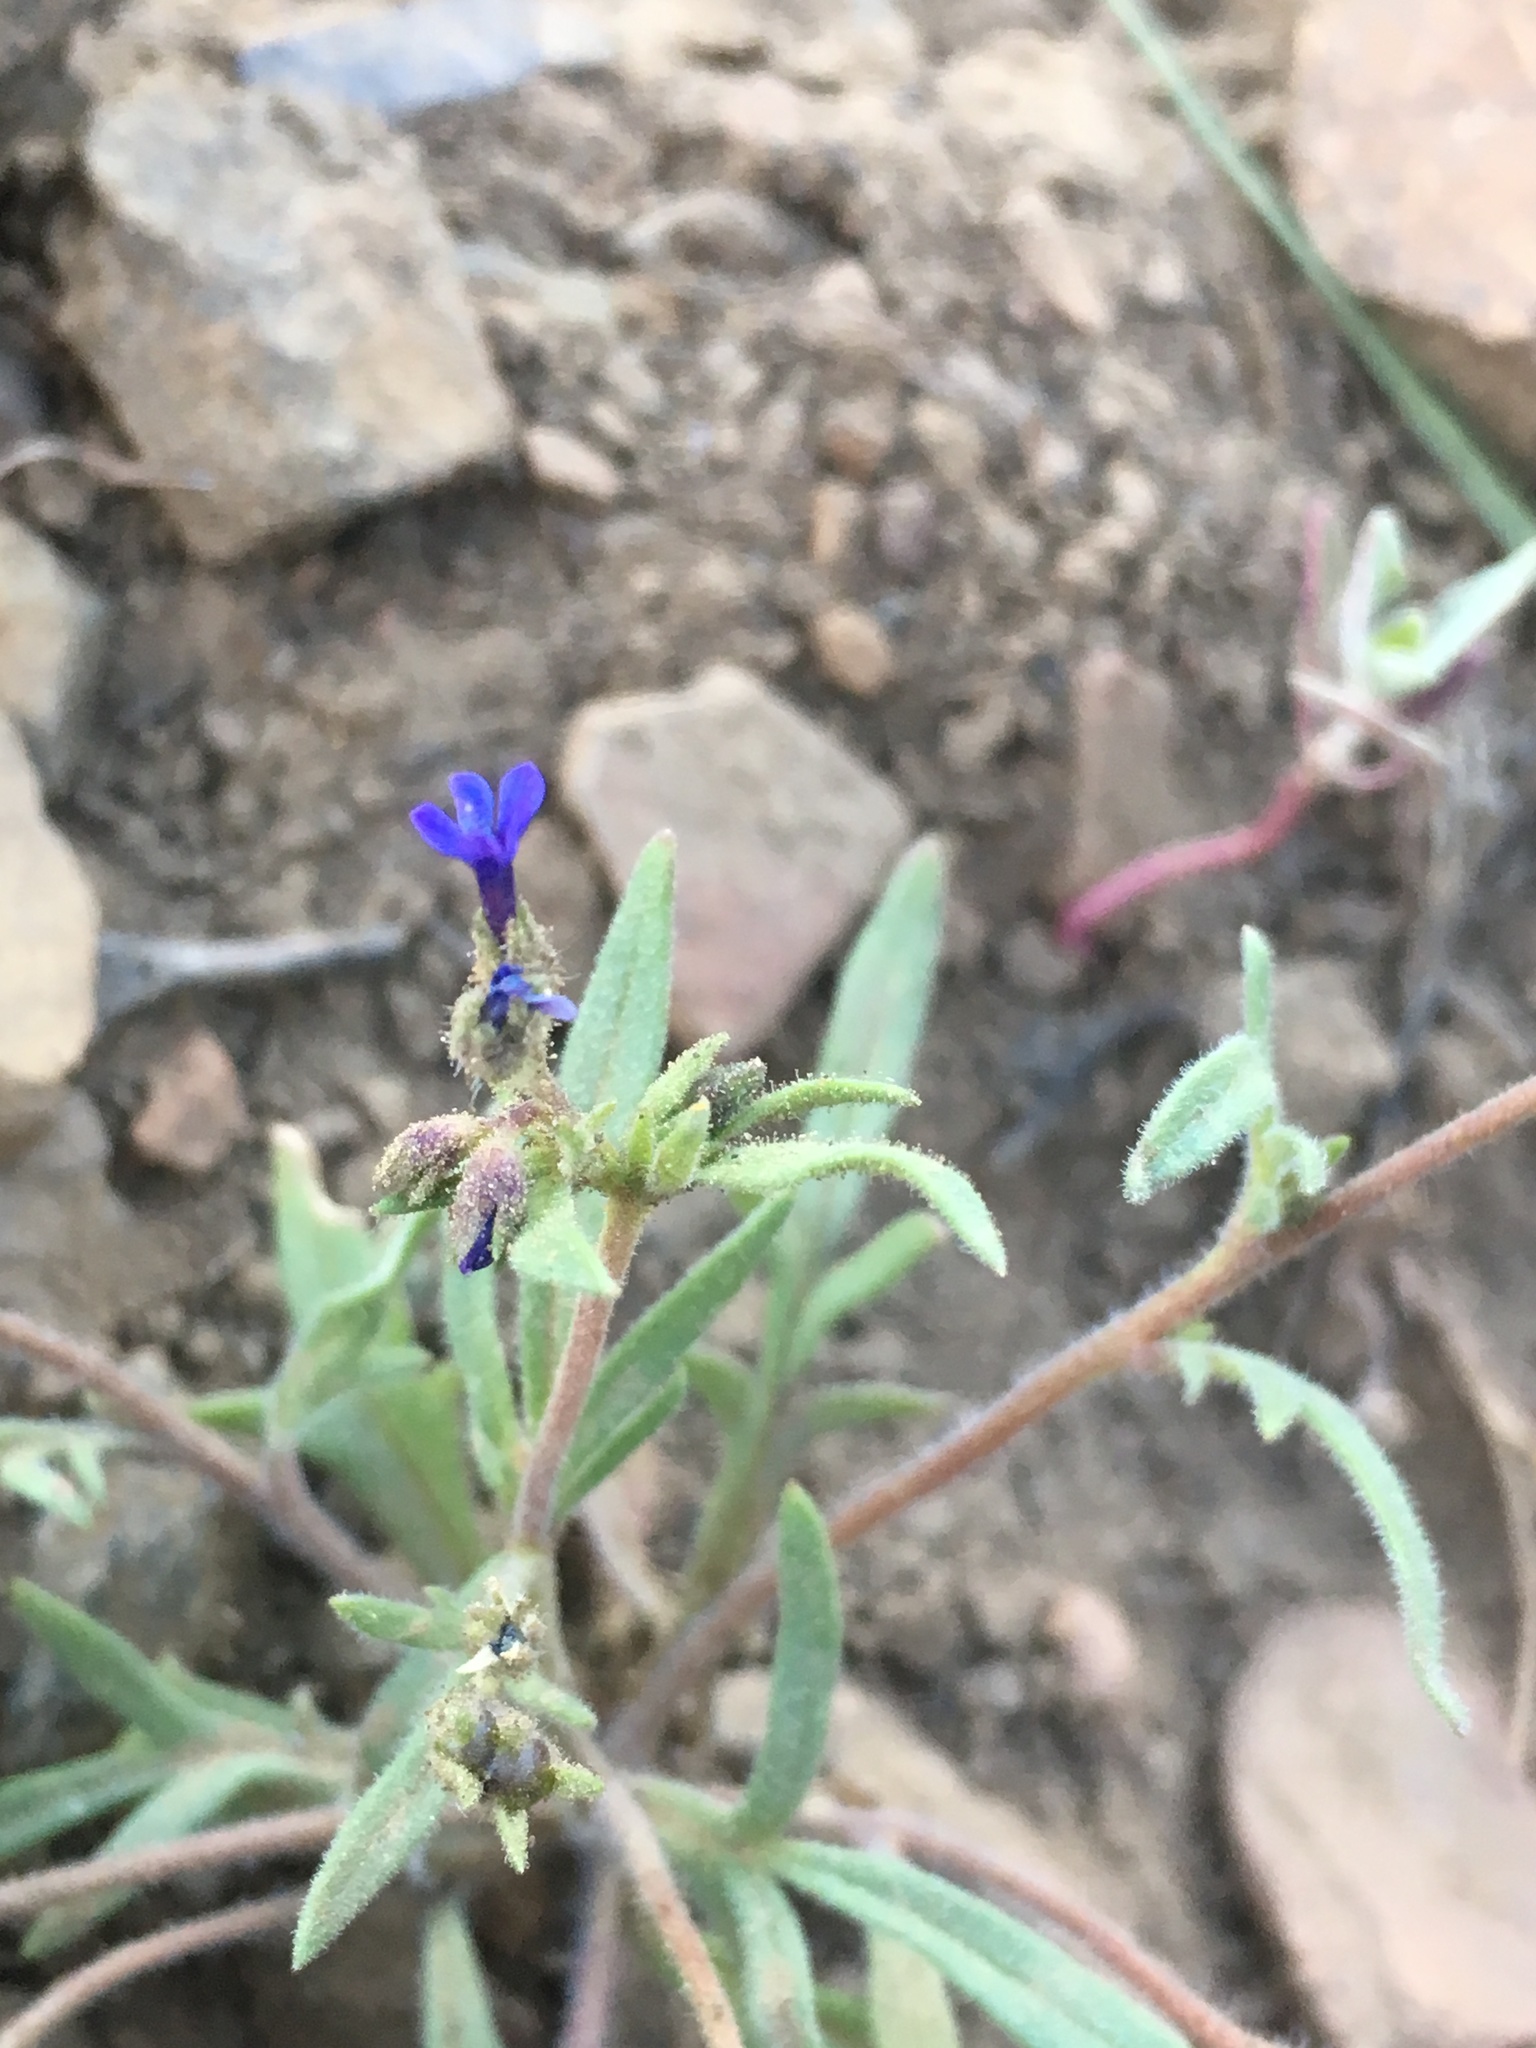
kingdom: Plantae
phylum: Tracheophyta
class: Magnoliopsida
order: Ericales
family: Polemoniaceae
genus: Allophyllum
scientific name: Allophyllum gilioides
